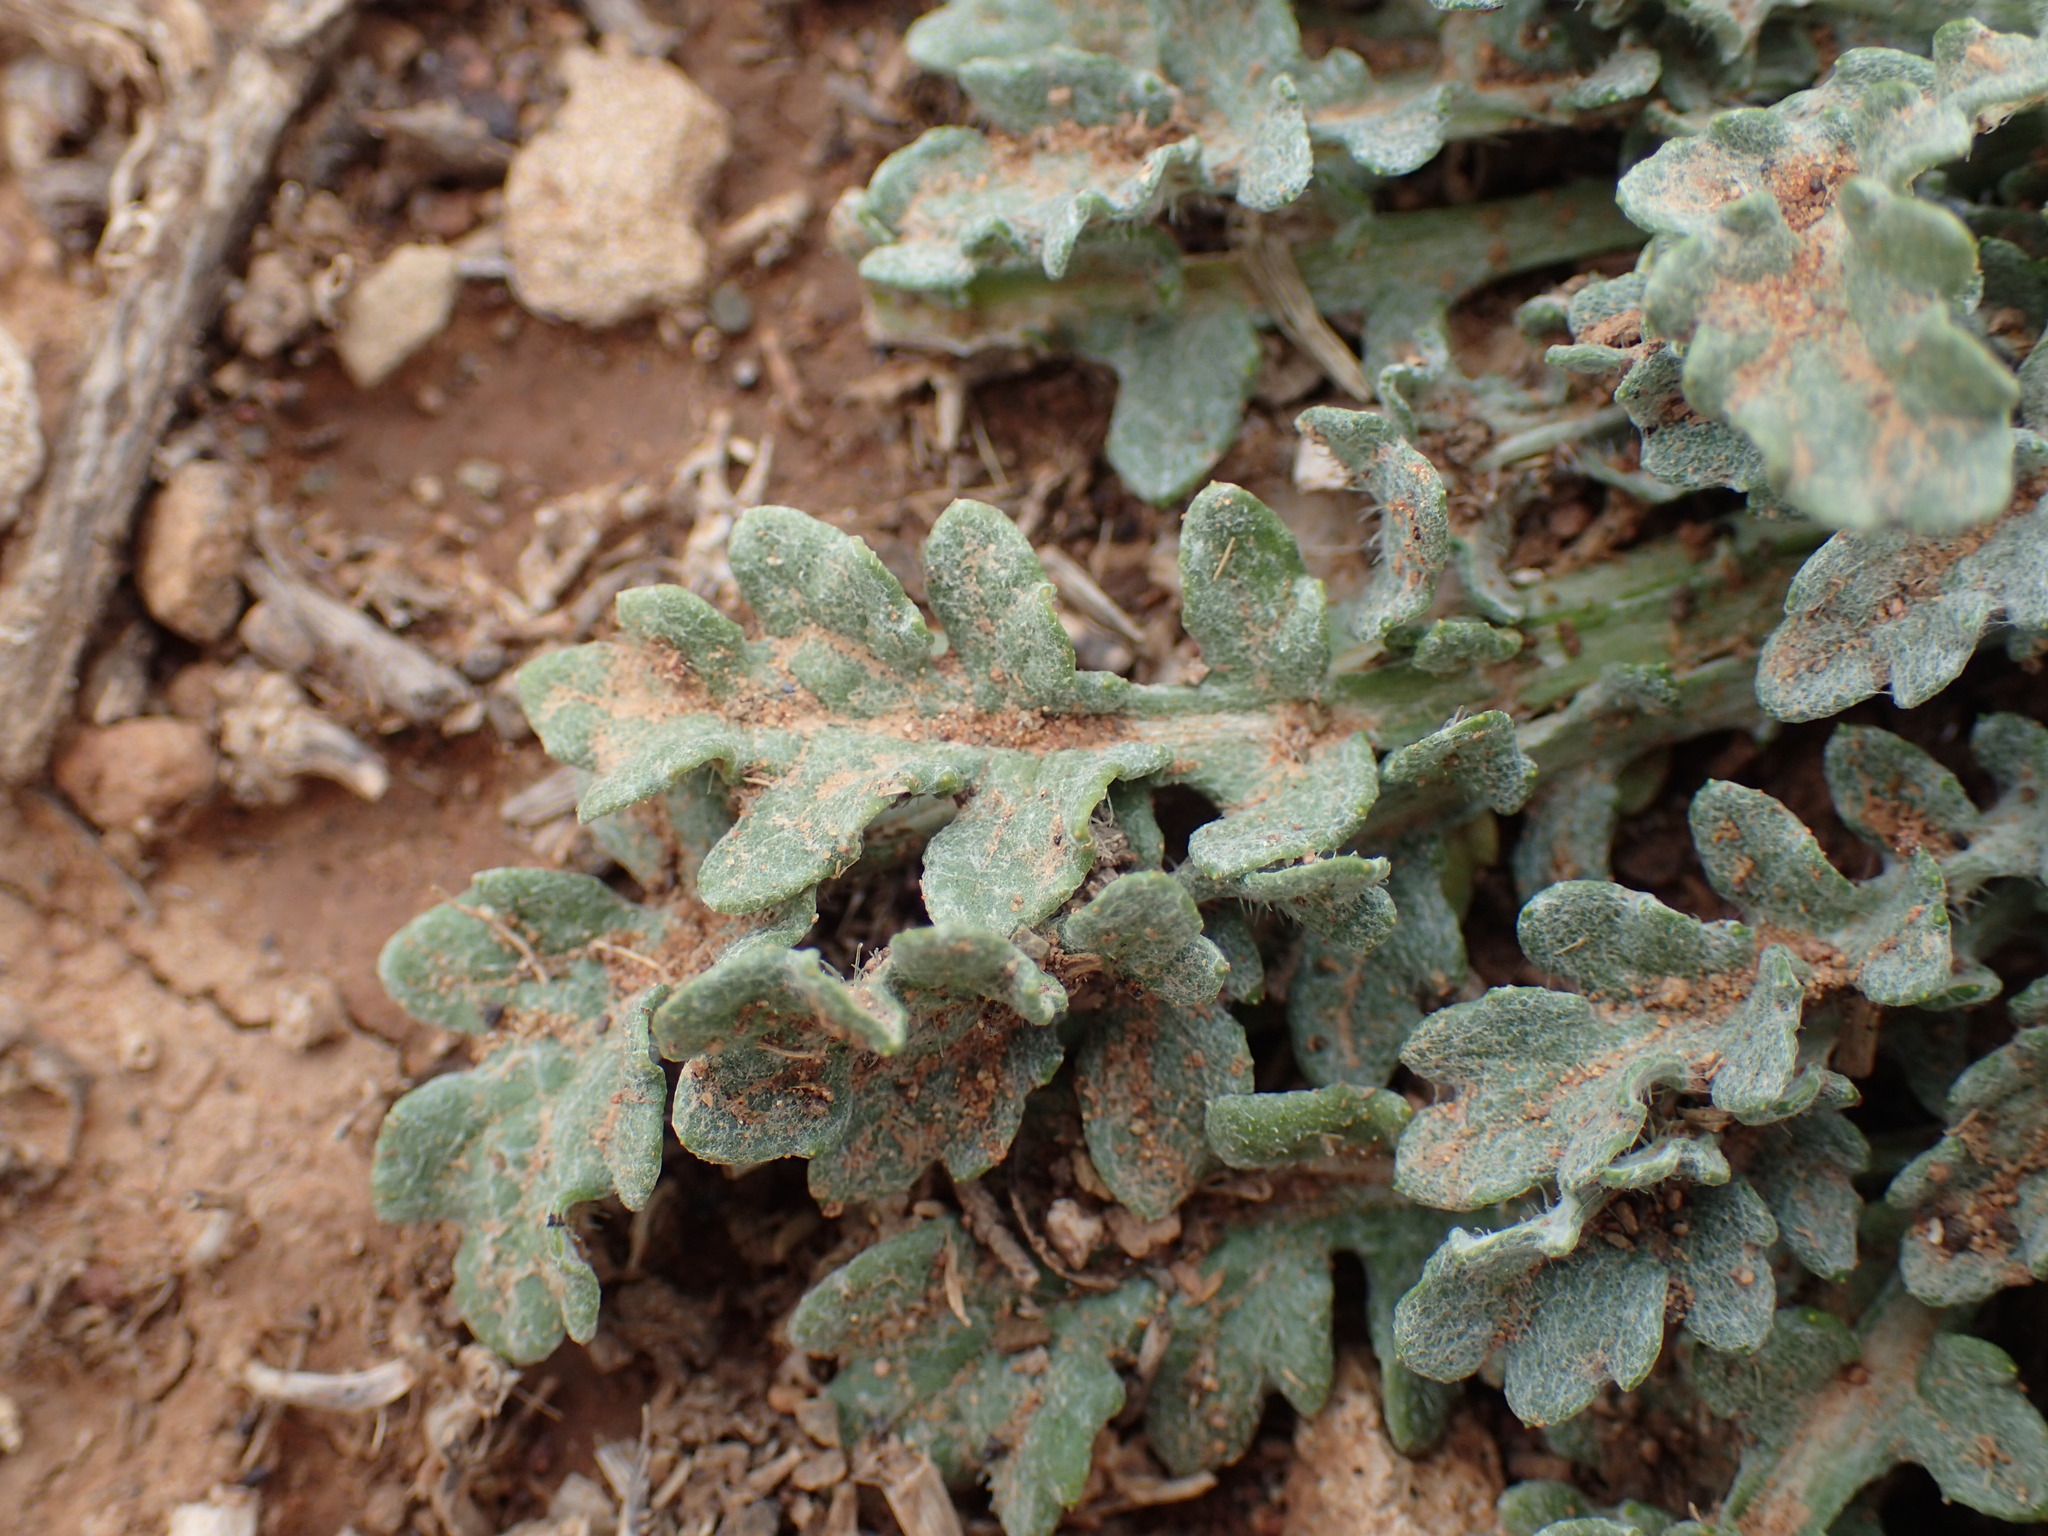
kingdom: Plantae
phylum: Tracheophyta
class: Magnoliopsida
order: Asterales
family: Asteraceae
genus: Arctotis
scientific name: Arctotis arctotoides
